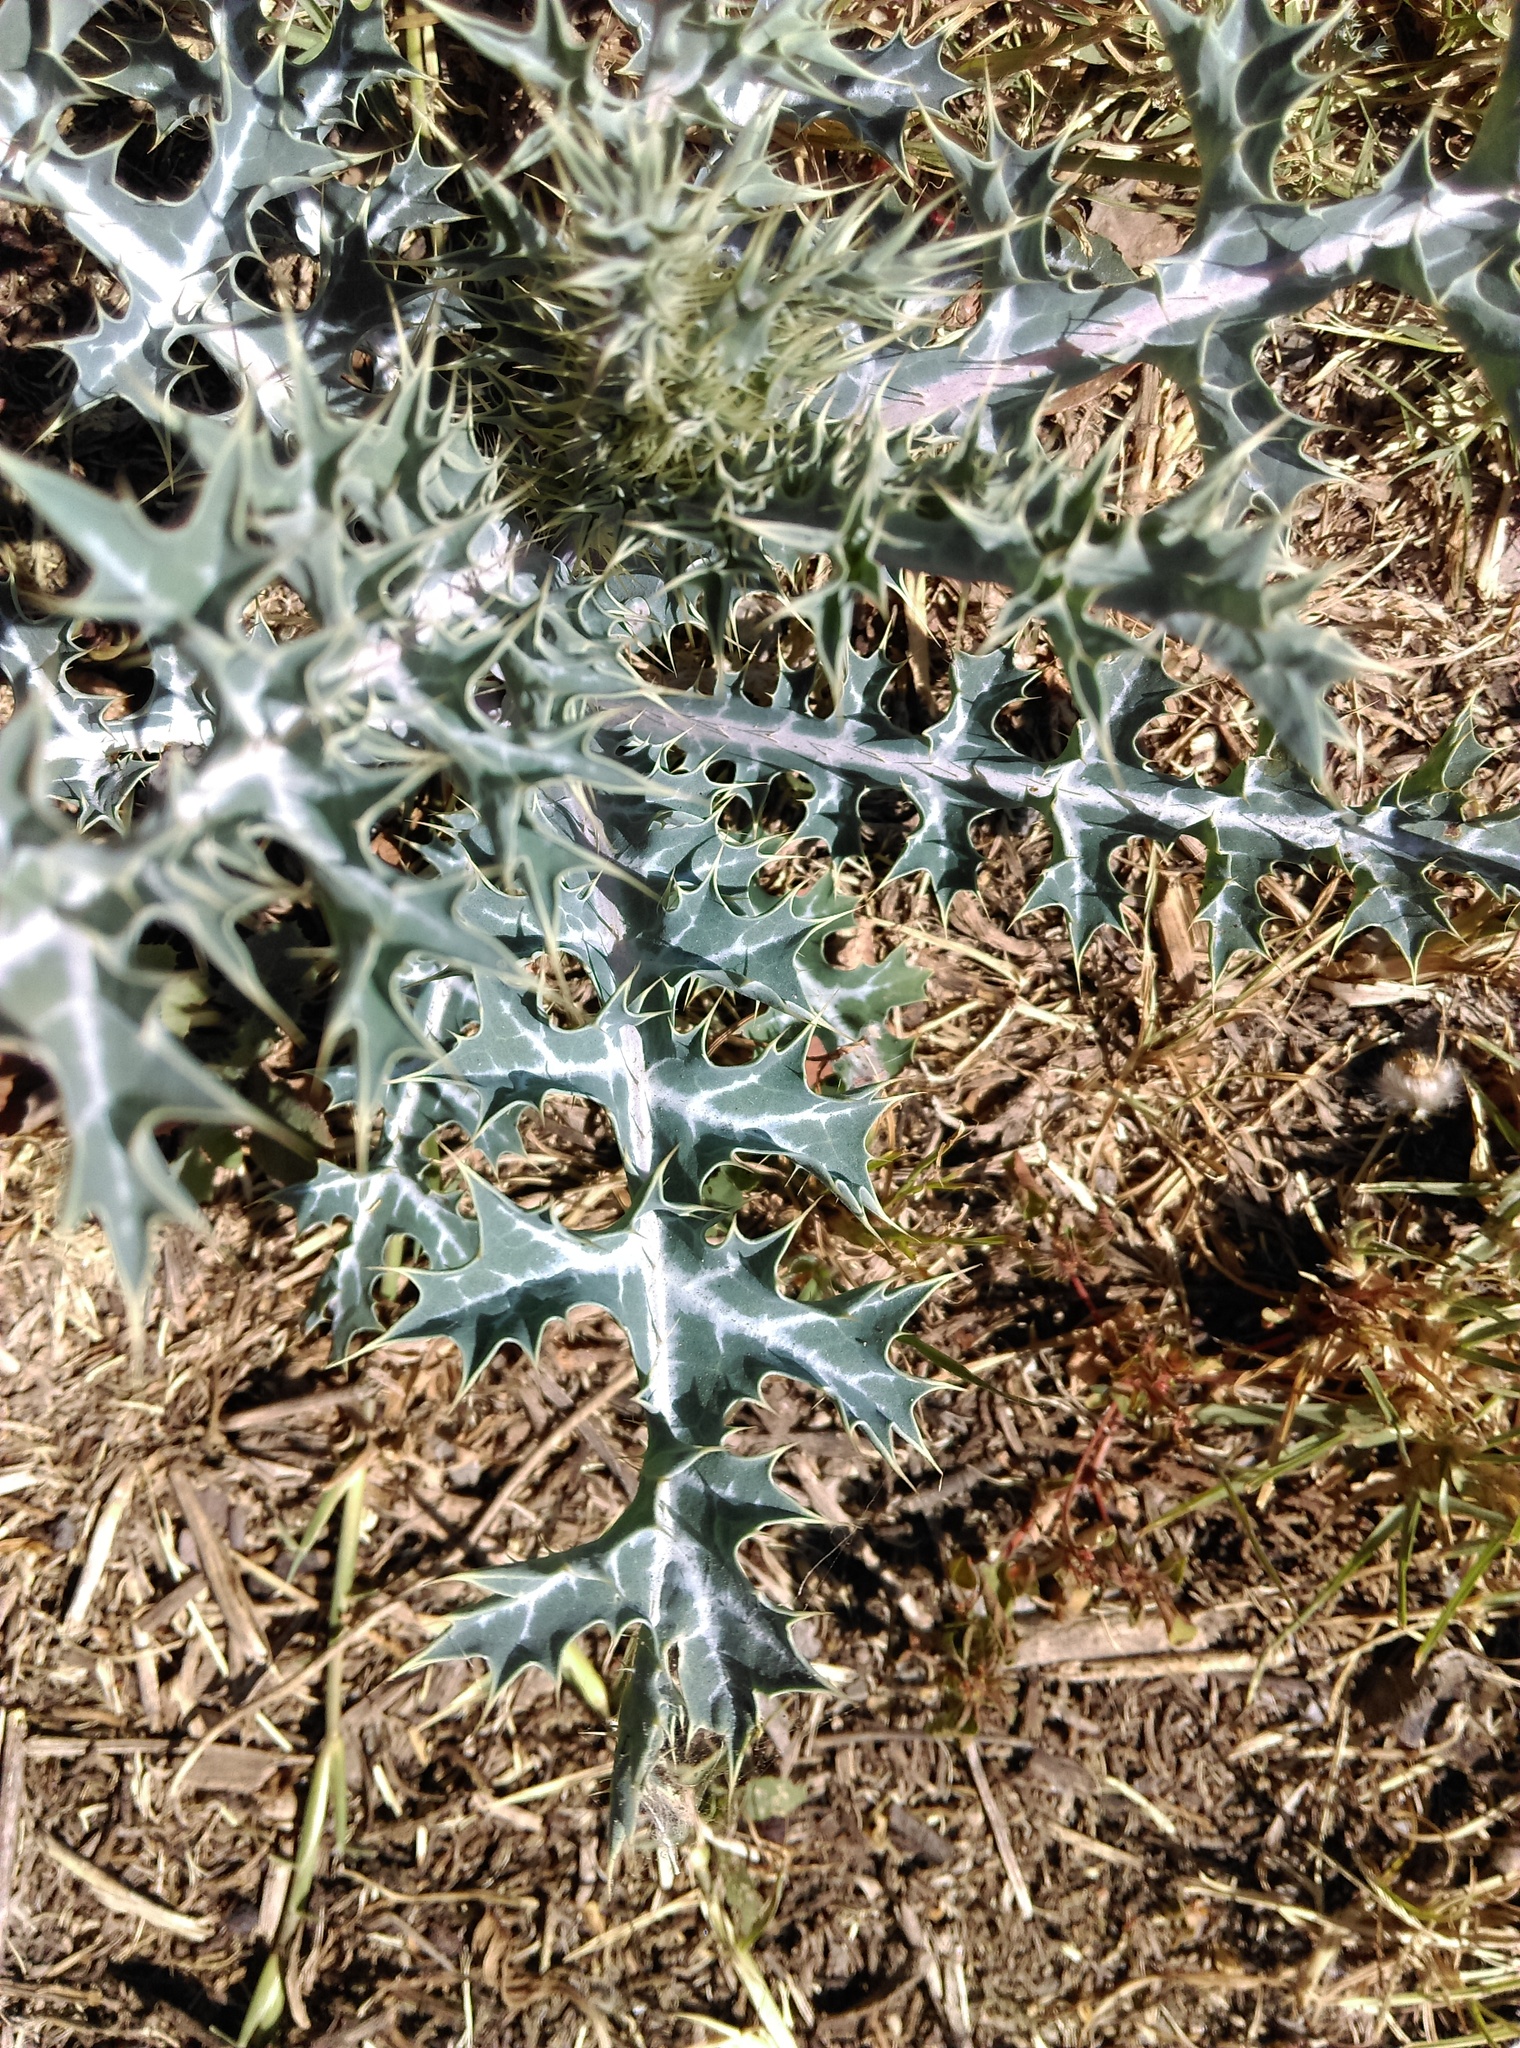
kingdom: Plantae
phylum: Tracheophyta
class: Magnoliopsida
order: Ranunculales
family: Papaveraceae
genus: Argemone
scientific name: Argemone ochroleuca
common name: White-flower mexican-poppy
